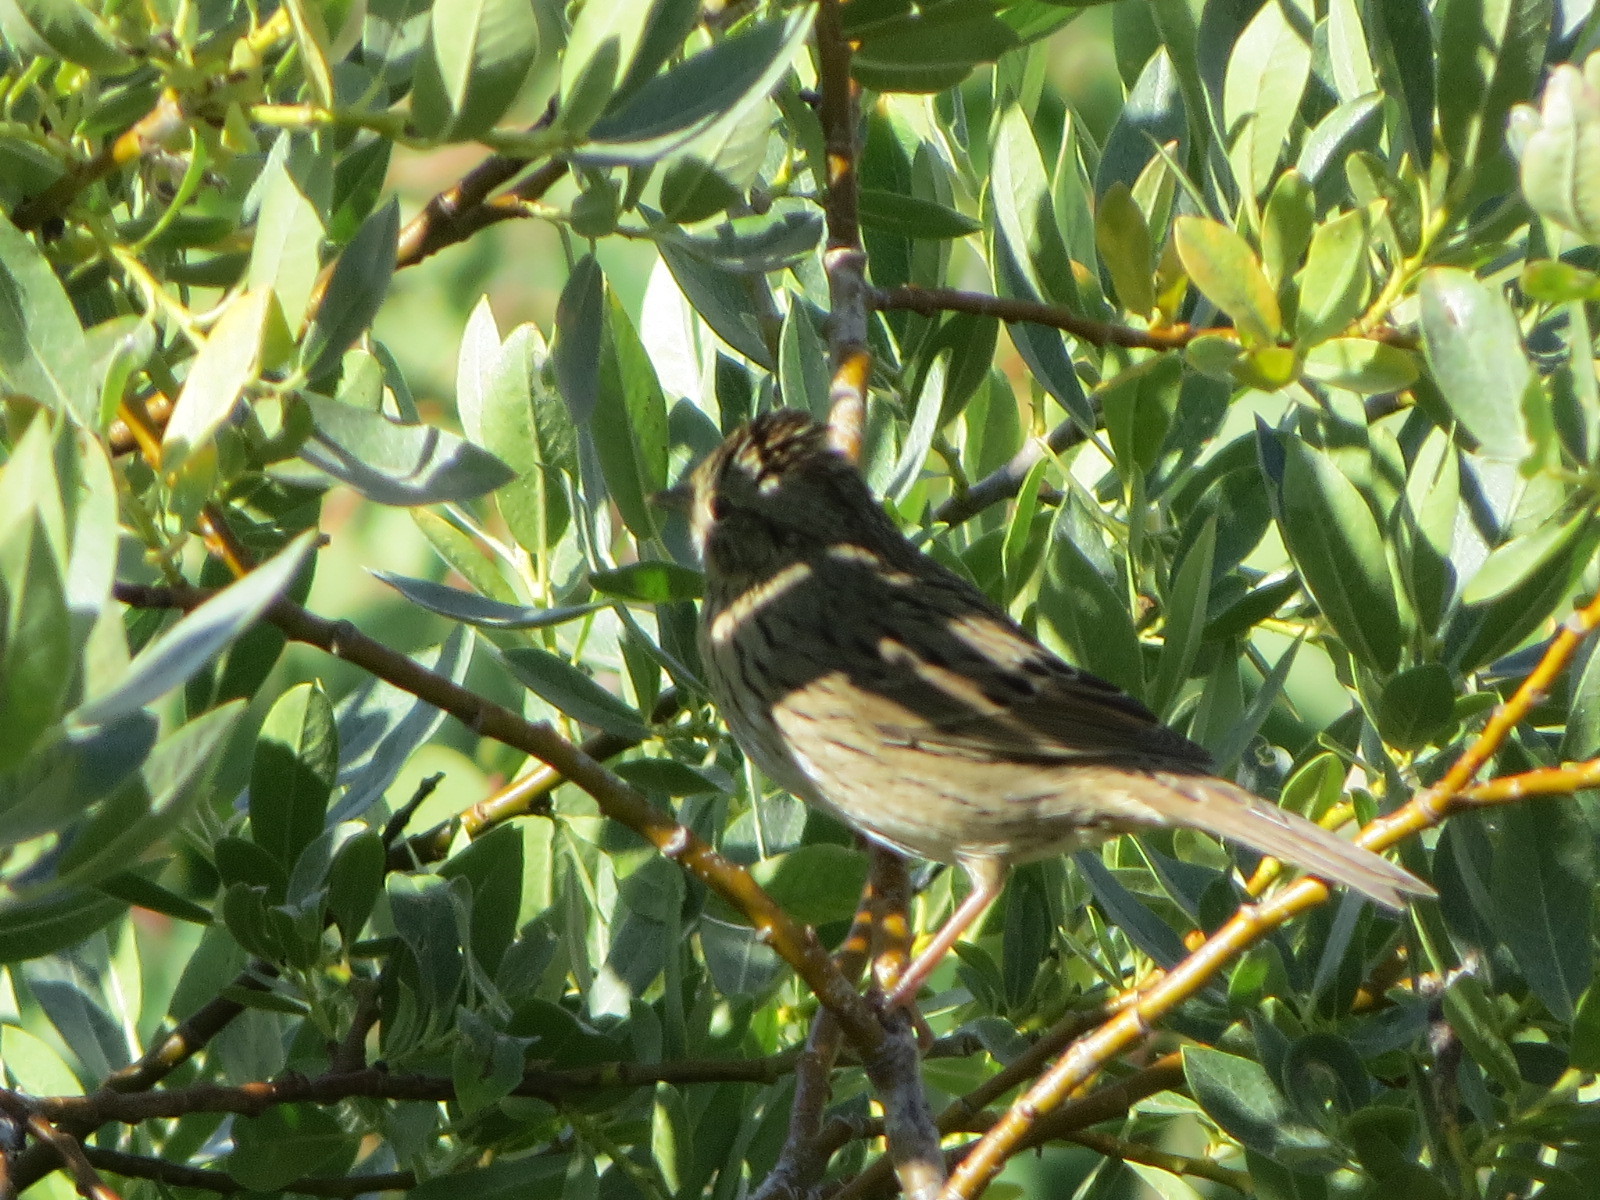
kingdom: Animalia
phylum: Chordata
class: Aves
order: Passeriformes
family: Passerellidae
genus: Melospiza
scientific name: Melospiza lincolnii
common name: Lincoln's sparrow
